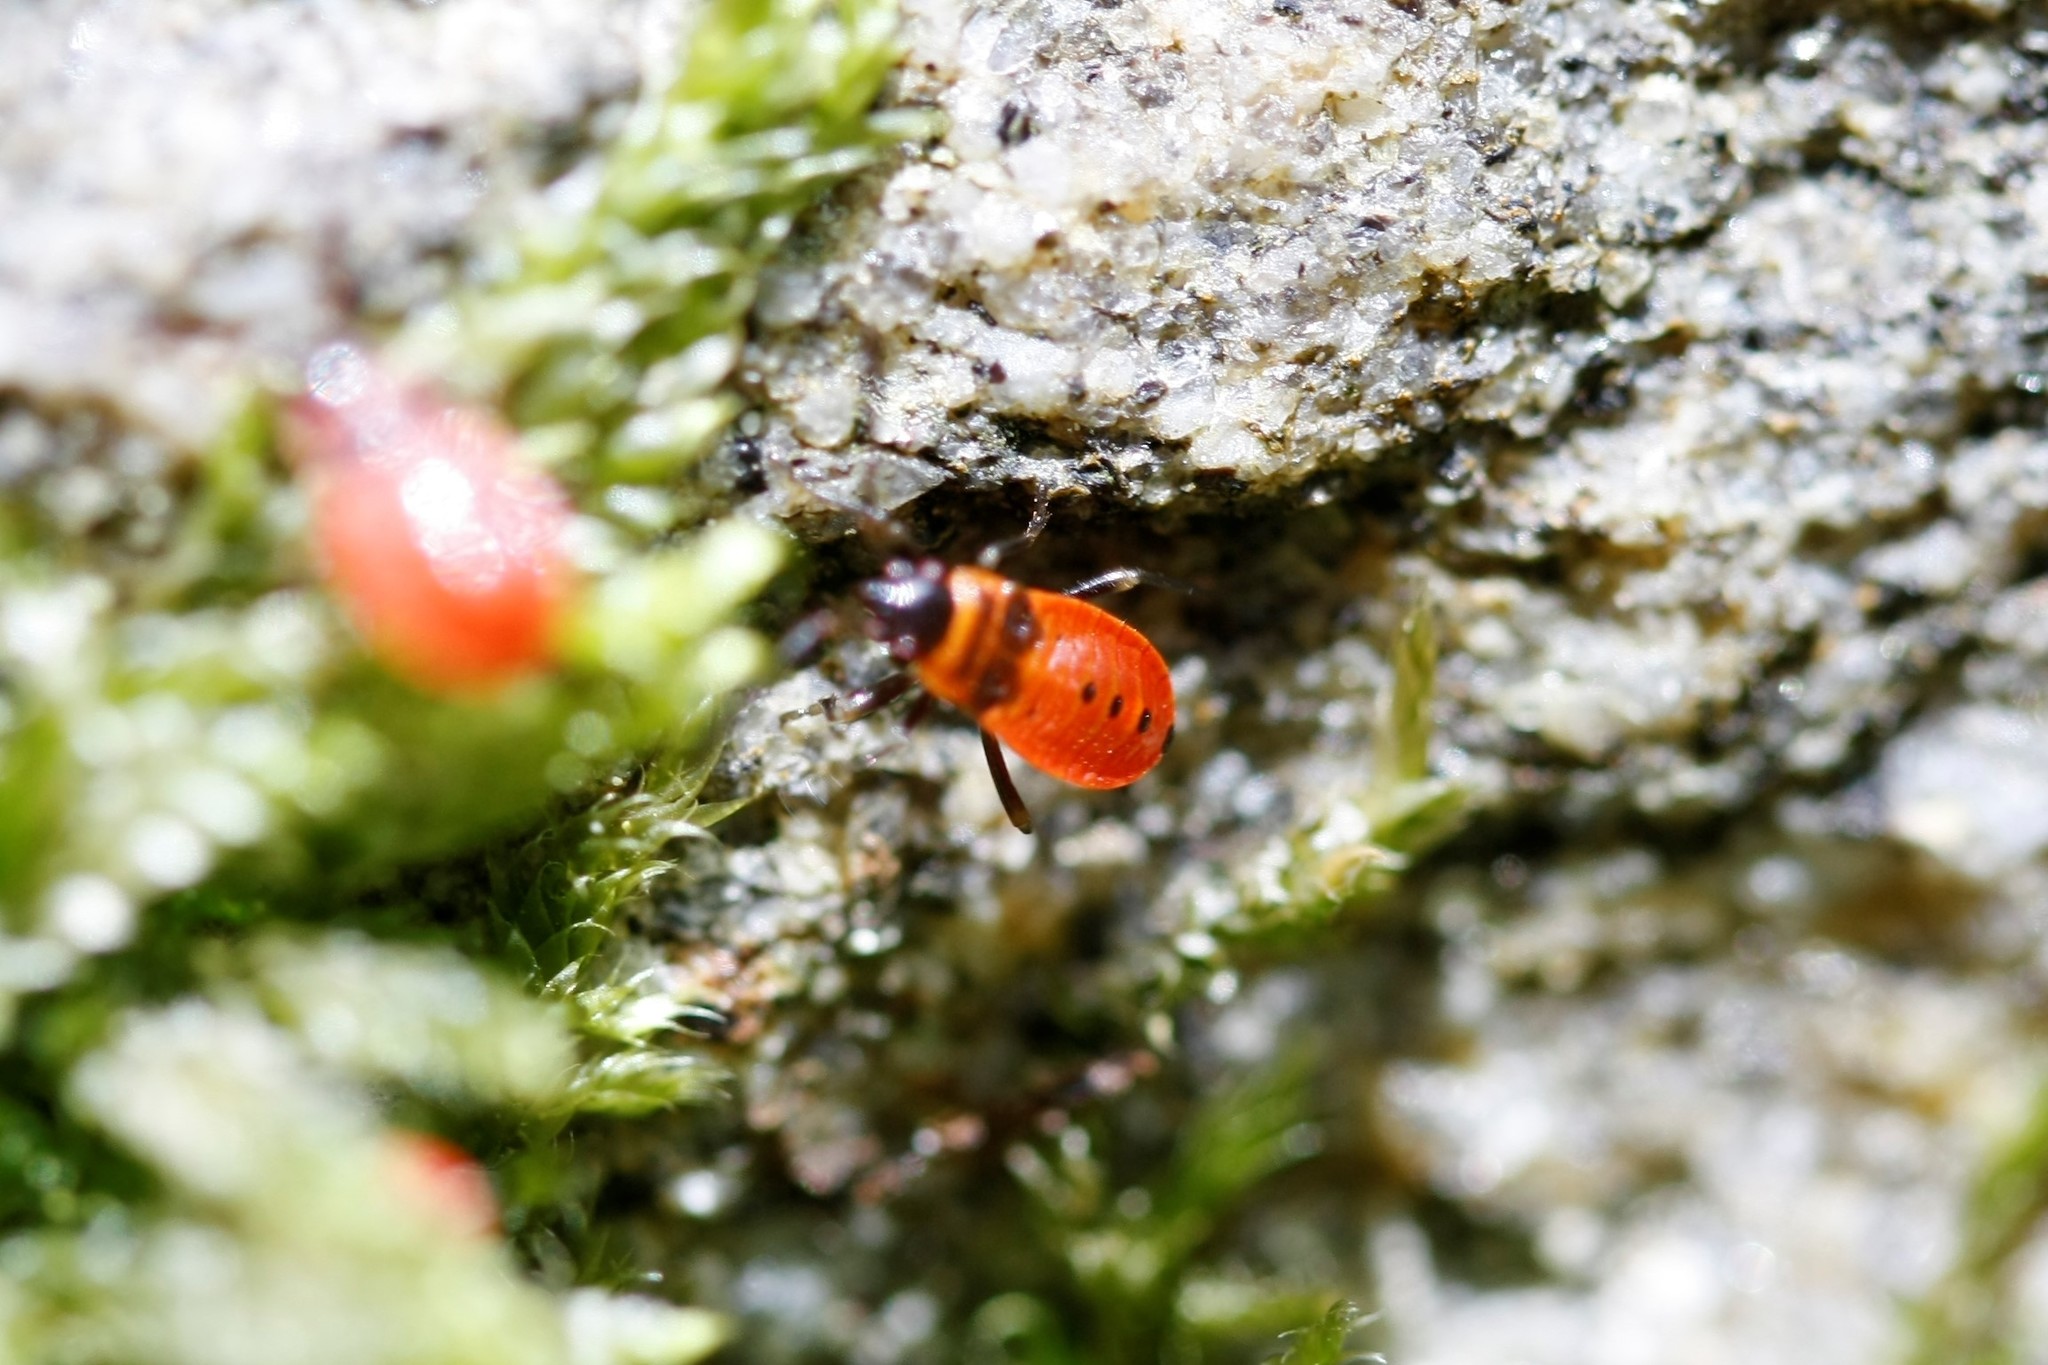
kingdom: Animalia
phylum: Arthropoda
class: Insecta
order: Hemiptera
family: Pyrrhocoridae
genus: Pyrrhocoris
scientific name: Pyrrhocoris apterus
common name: Firebug
